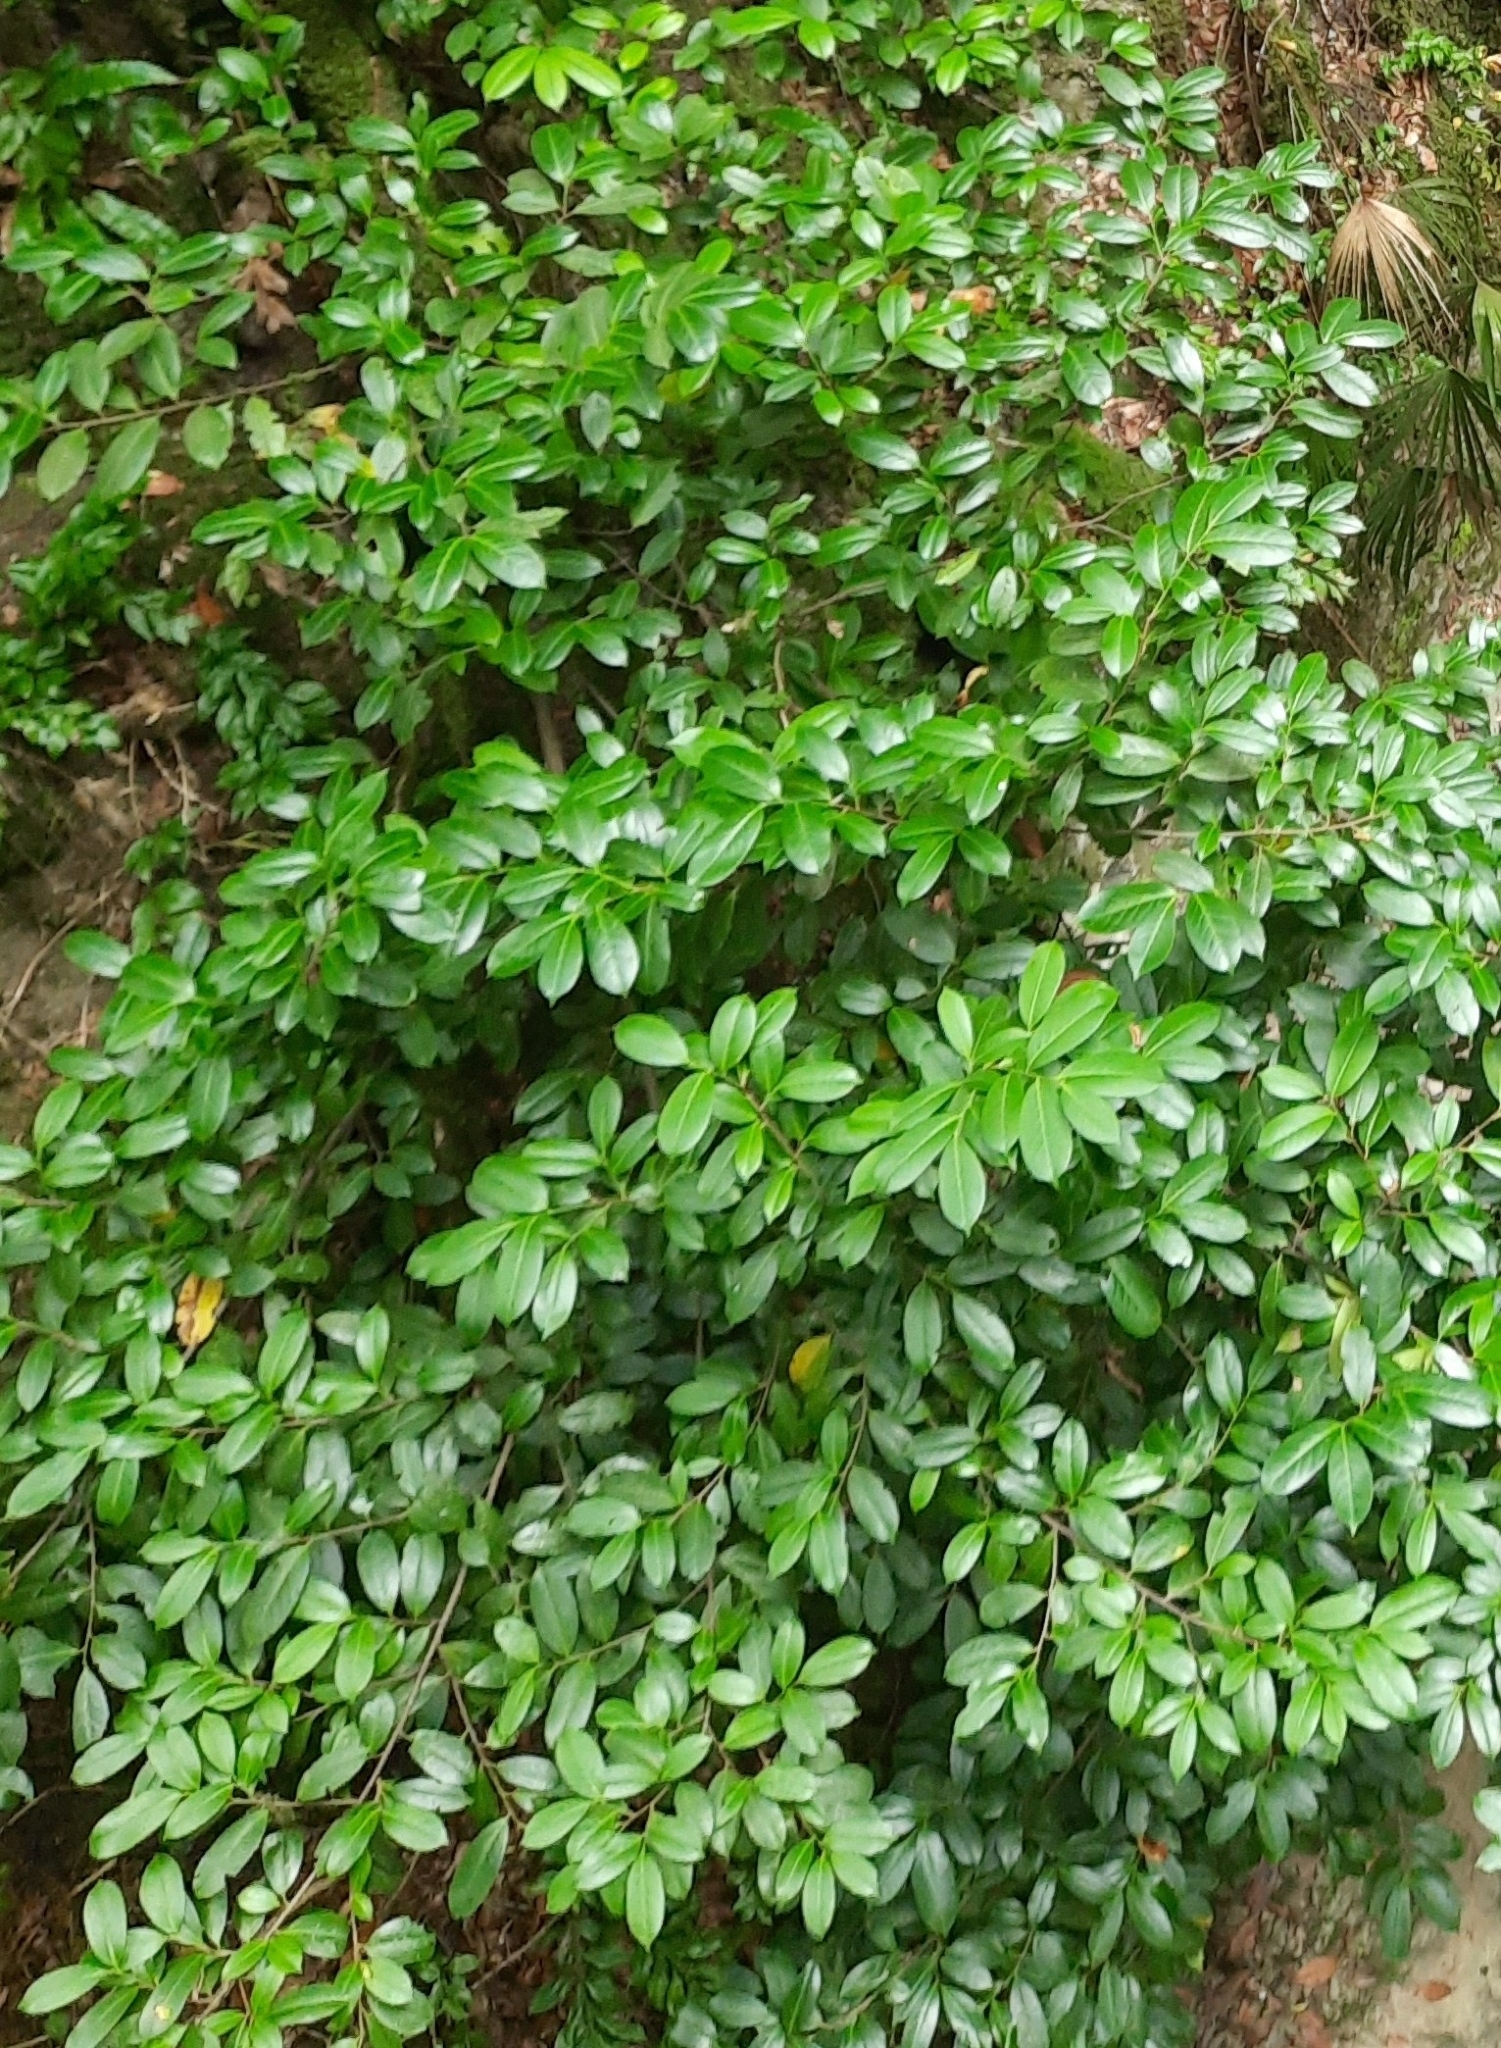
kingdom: Plantae
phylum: Tracheophyta
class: Magnoliopsida
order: Rosales
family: Rosaceae
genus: Prunus
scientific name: Prunus laurocerasus
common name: Cherry laurel
